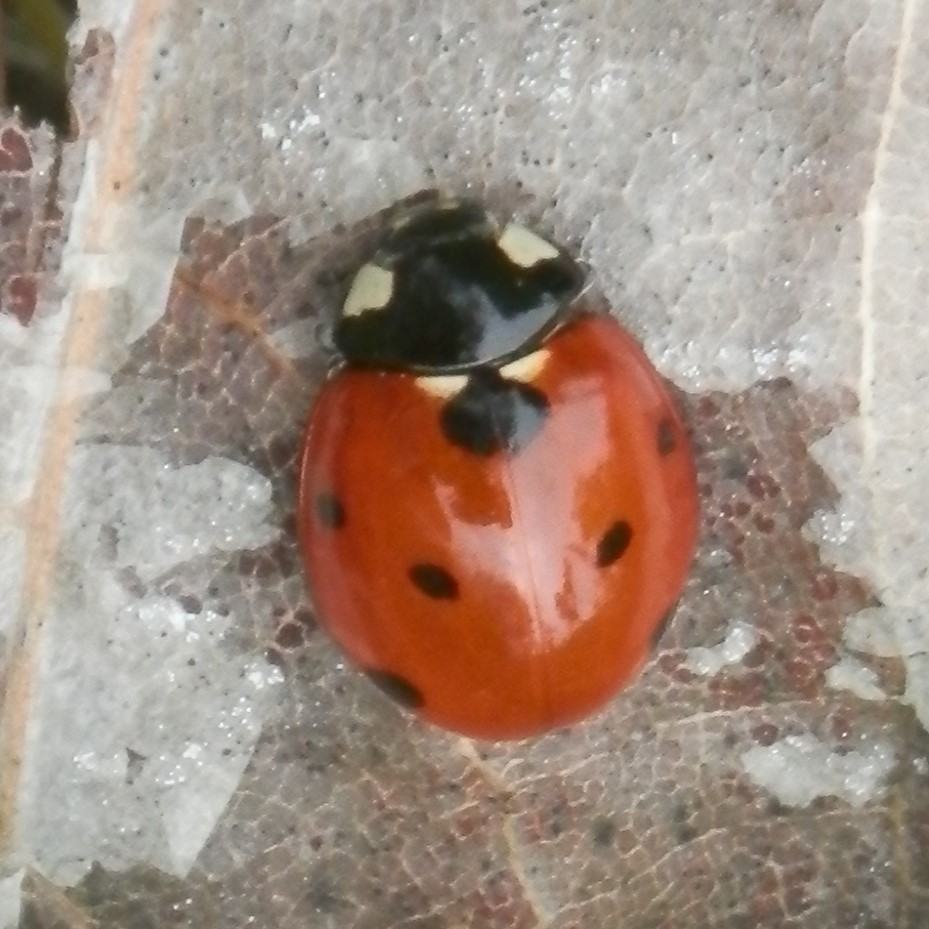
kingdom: Animalia
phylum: Arthropoda
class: Insecta
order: Coleoptera
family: Coccinellidae
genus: Coccinella
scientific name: Coccinella septempunctata
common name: Sevenspotted lady beetle
